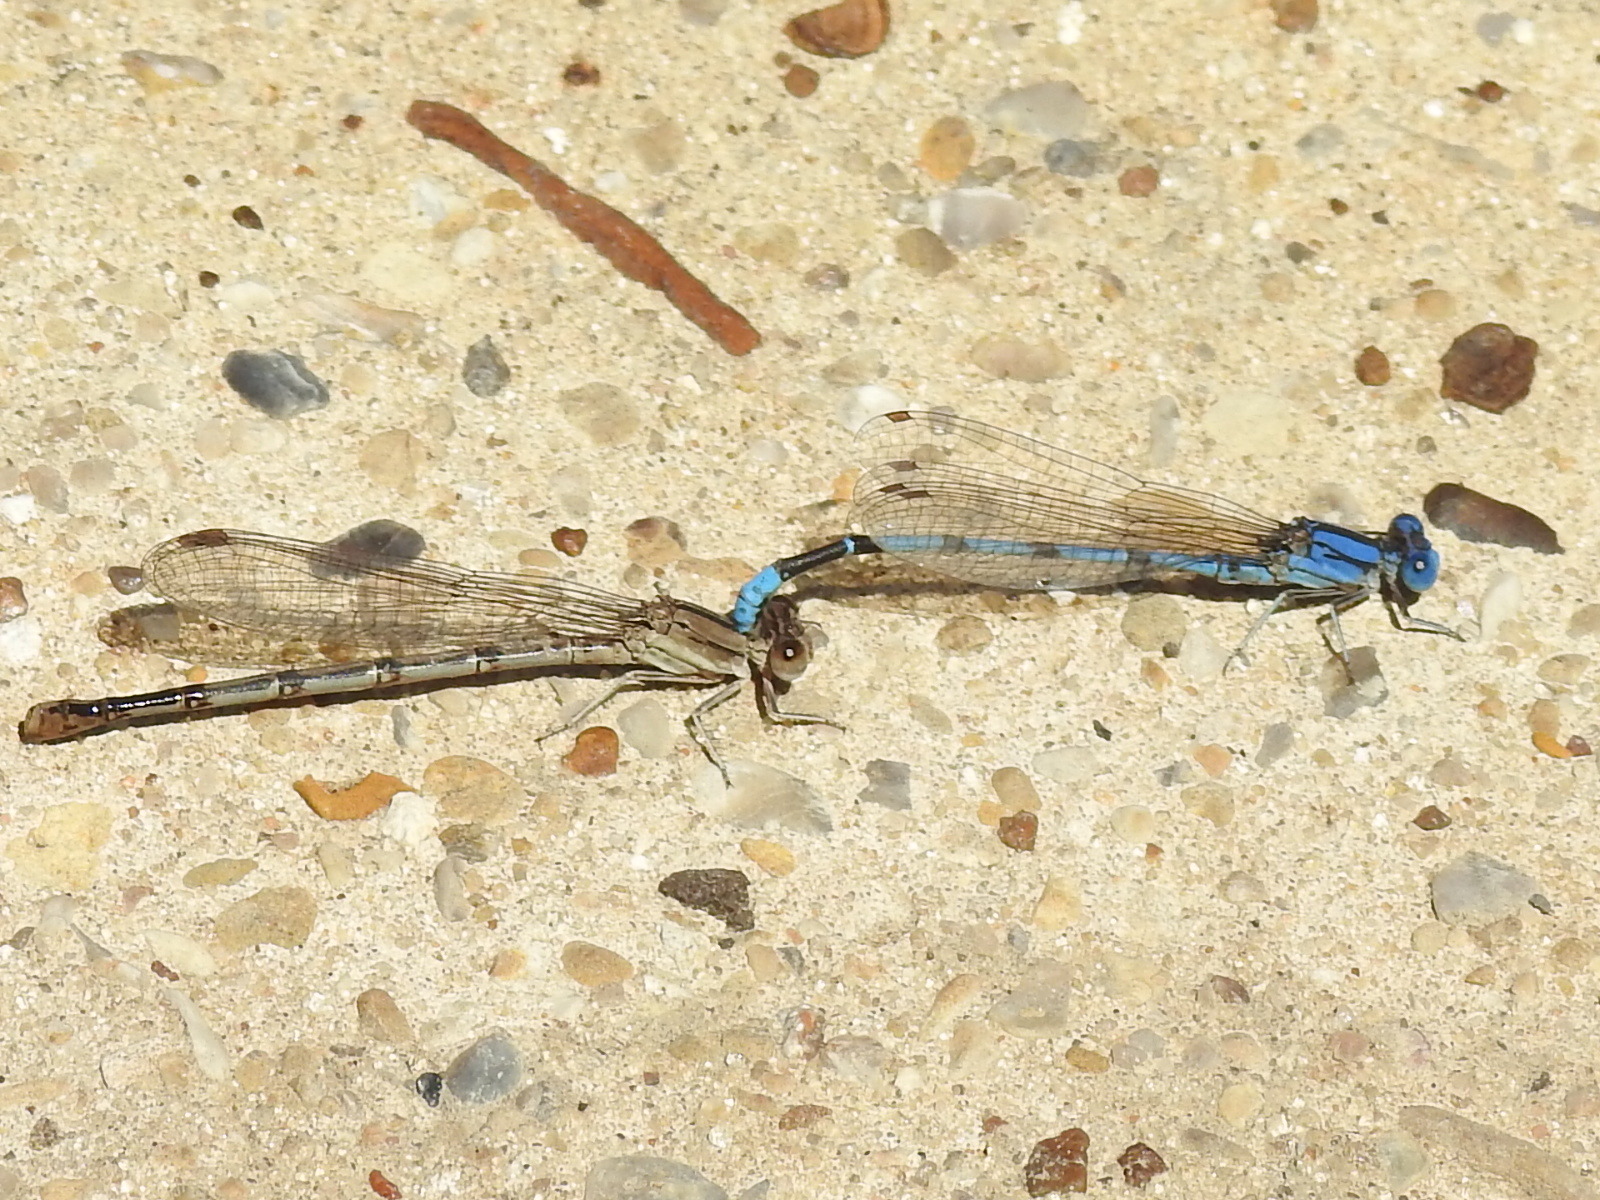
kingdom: Animalia
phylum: Arthropoda
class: Insecta
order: Odonata
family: Coenagrionidae
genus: Argia
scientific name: Argia nahuana
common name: Aztec dancer
